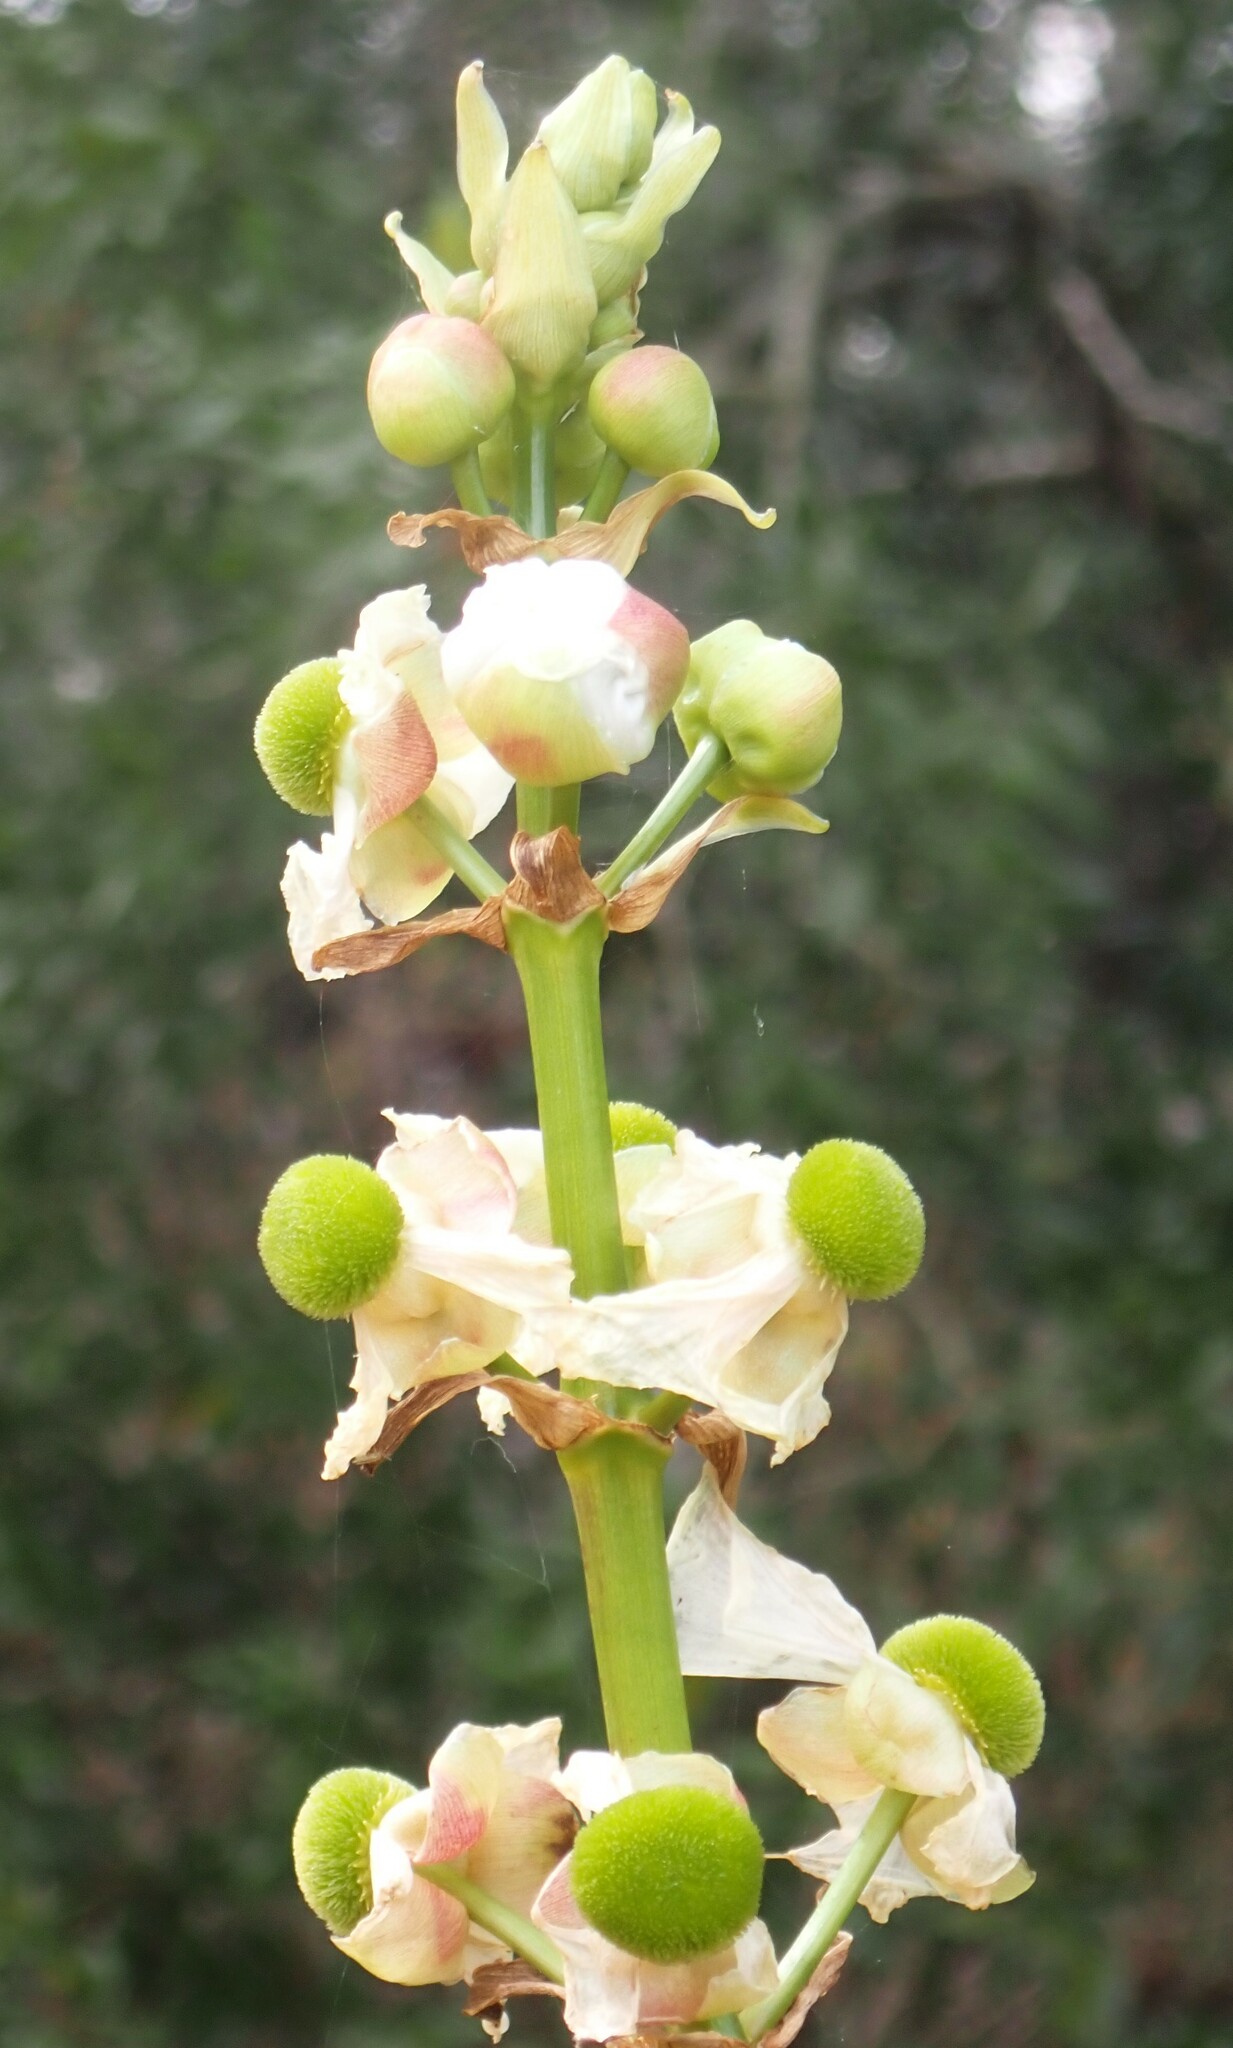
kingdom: Plantae
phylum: Tracheophyta
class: Liliopsida
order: Alismatales
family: Alismataceae
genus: Sagittaria
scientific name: Sagittaria lancifolia
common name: Lance-leaf arrowhead
